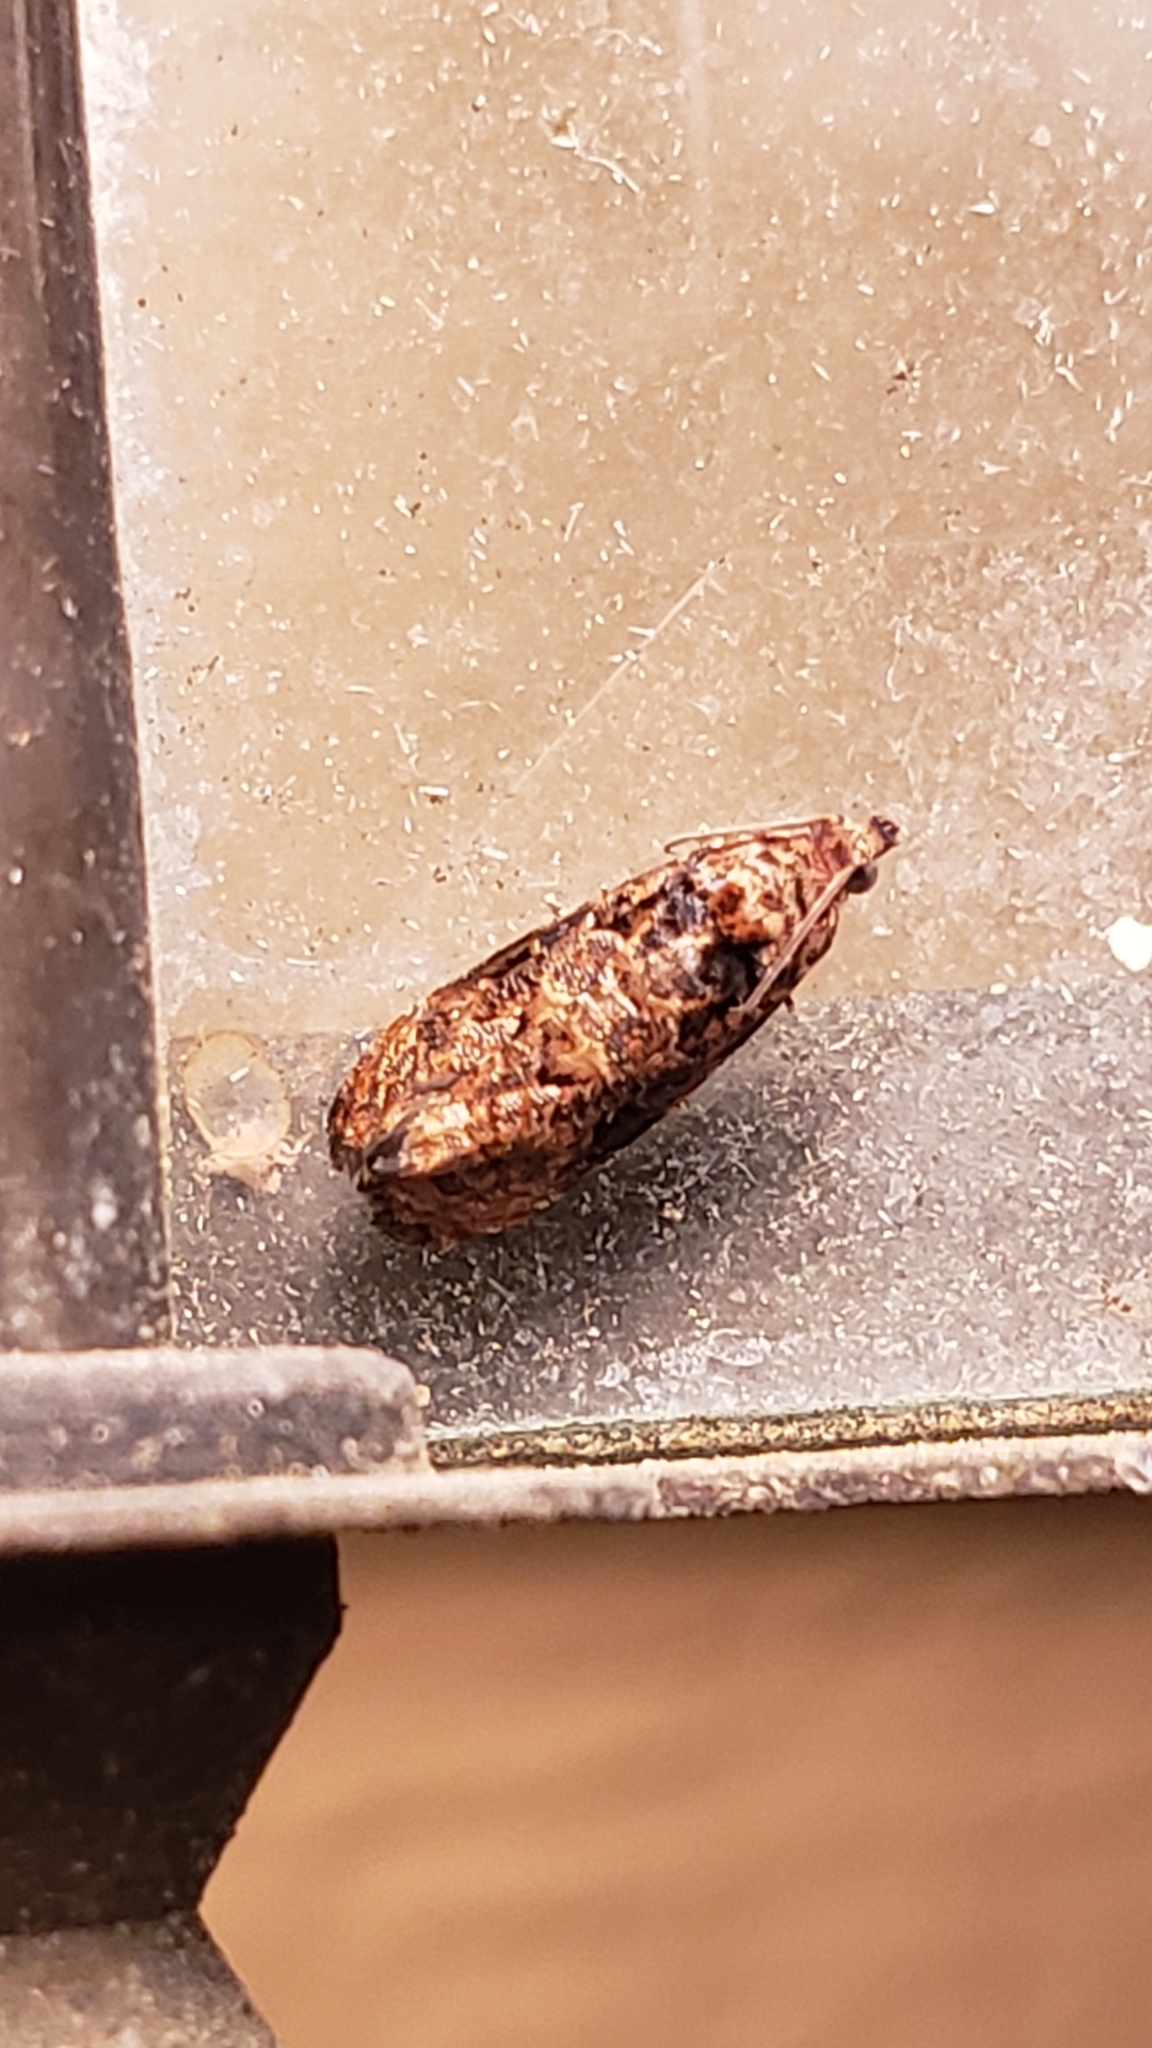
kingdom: Animalia
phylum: Arthropoda
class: Insecta
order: Lepidoptera
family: Tortricidae
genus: Endothenia
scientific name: Endothenia hebesana
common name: Verbena bud moth
